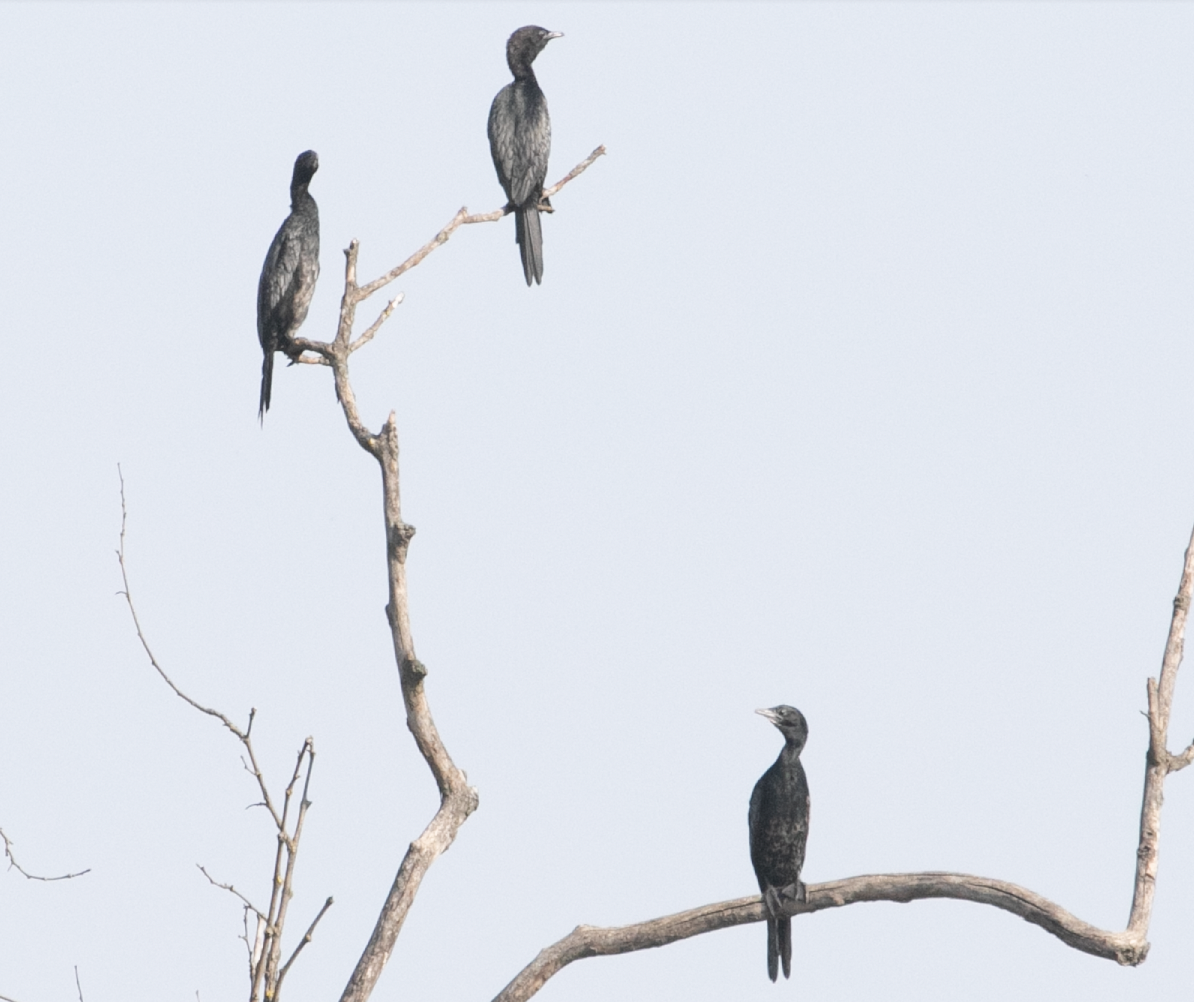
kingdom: Animalia
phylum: Chordata
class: Aves
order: Suliformes
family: Phalacrocoracidae
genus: Microcarbo
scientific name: Microcarbo pygmaeus
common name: Pygmy cormorant
